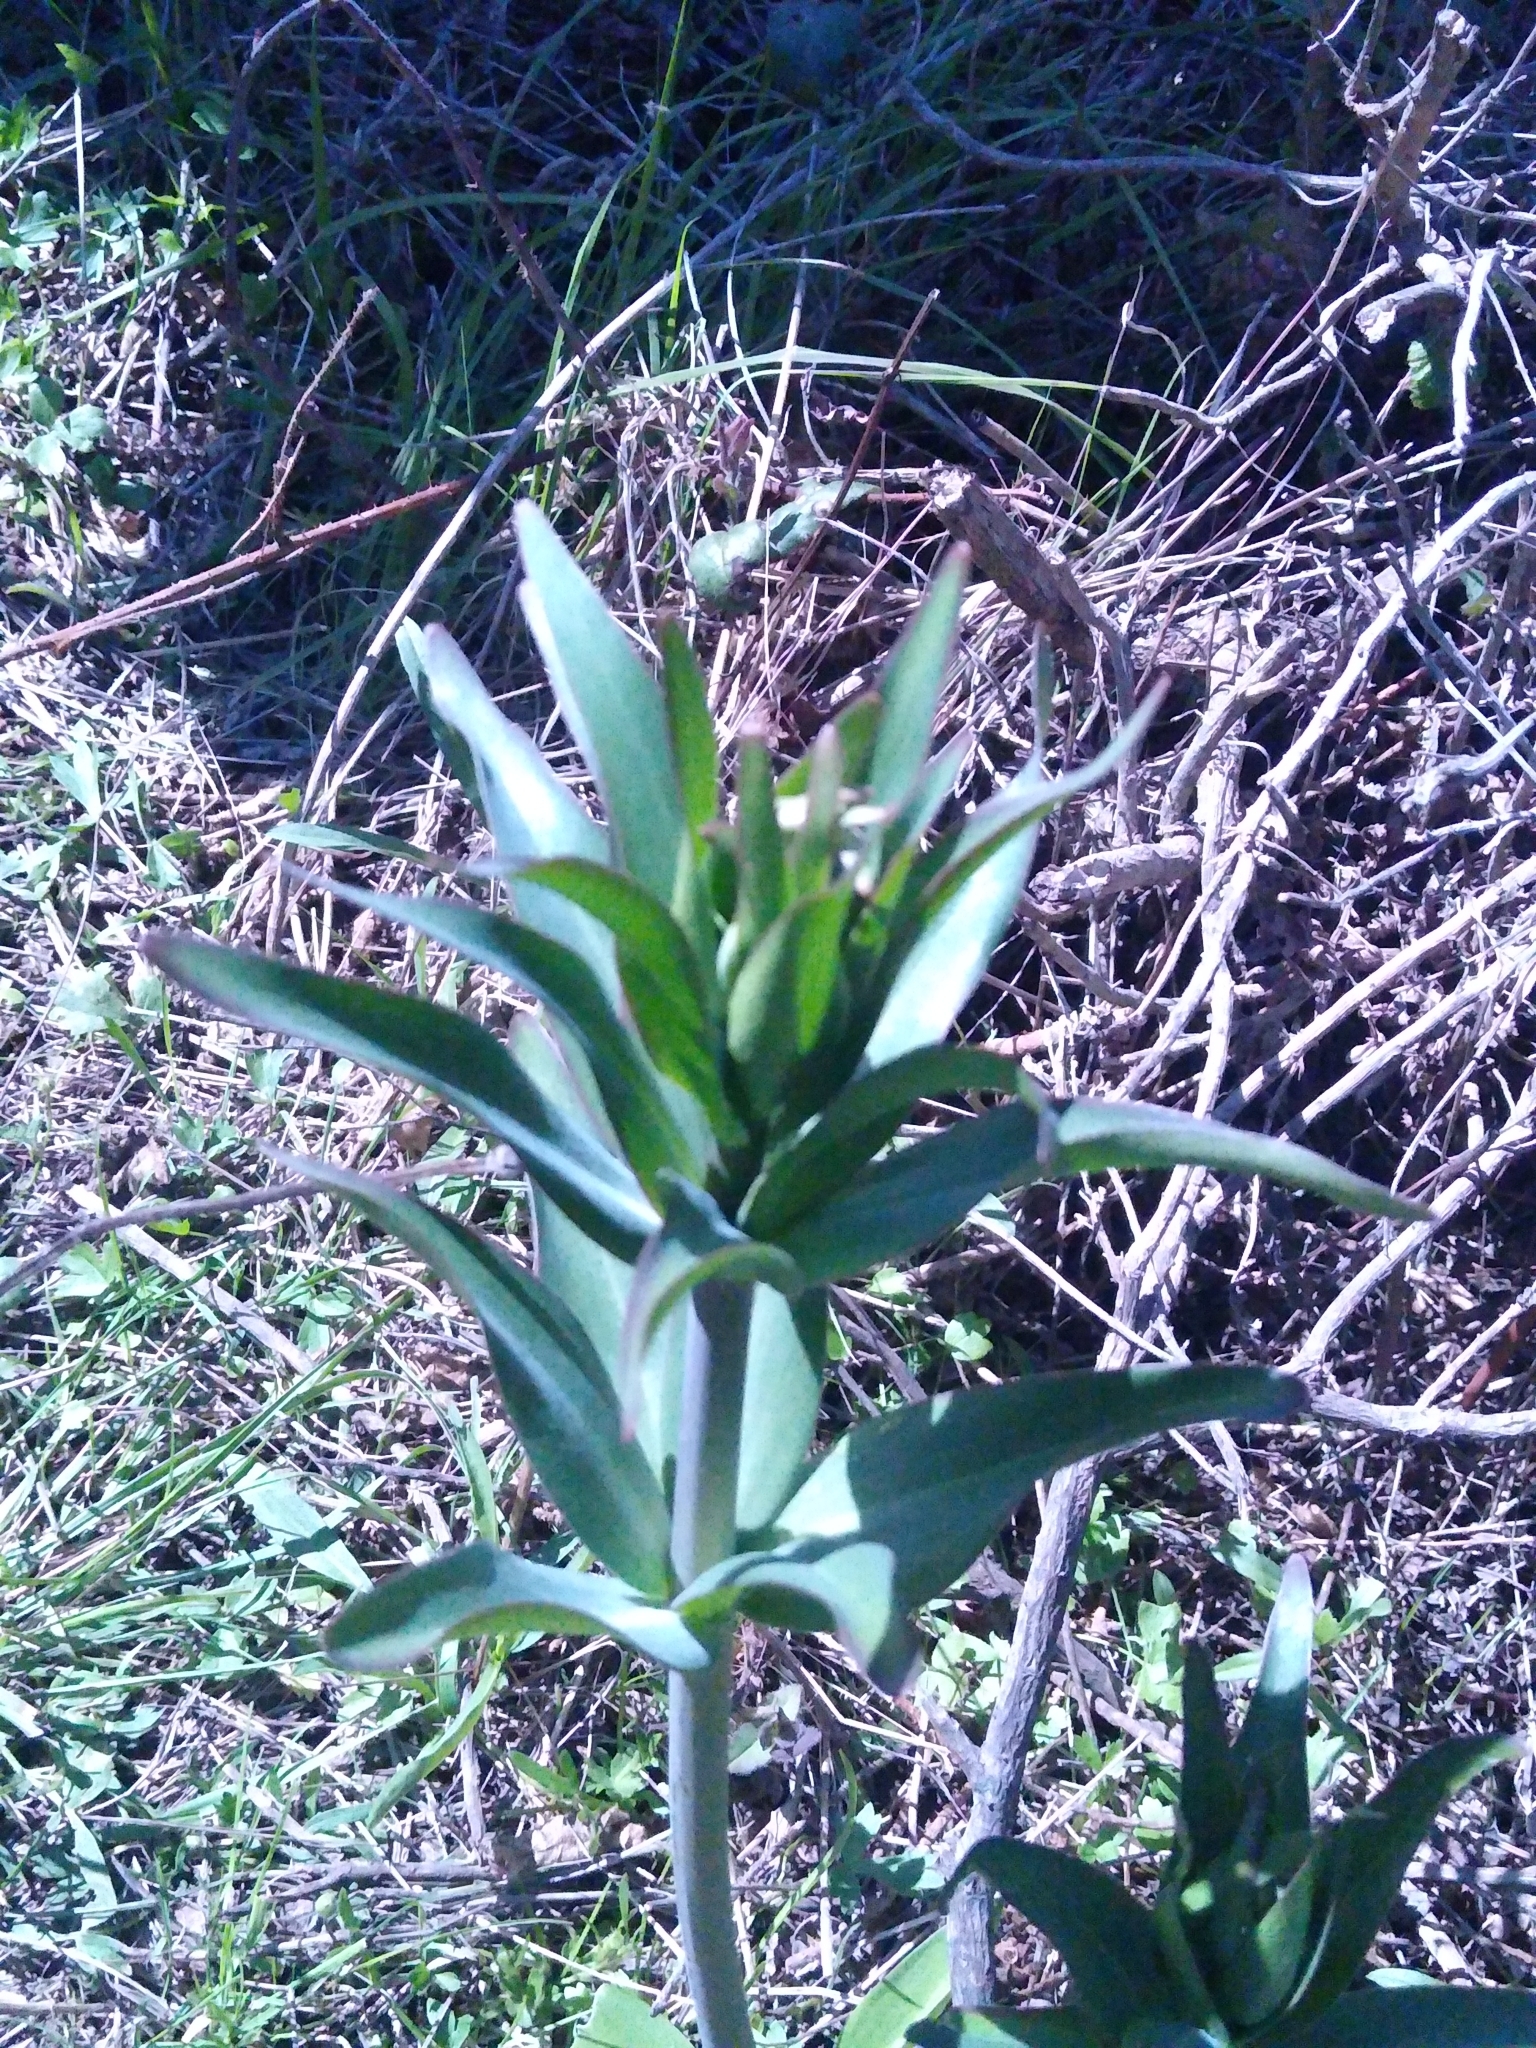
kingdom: Plantae
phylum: Tracheophyta
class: Liliopsida
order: Liliales
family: Liliaceae
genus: Fritillaria
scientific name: Fritillaria affinis
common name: Ojai fritillary
